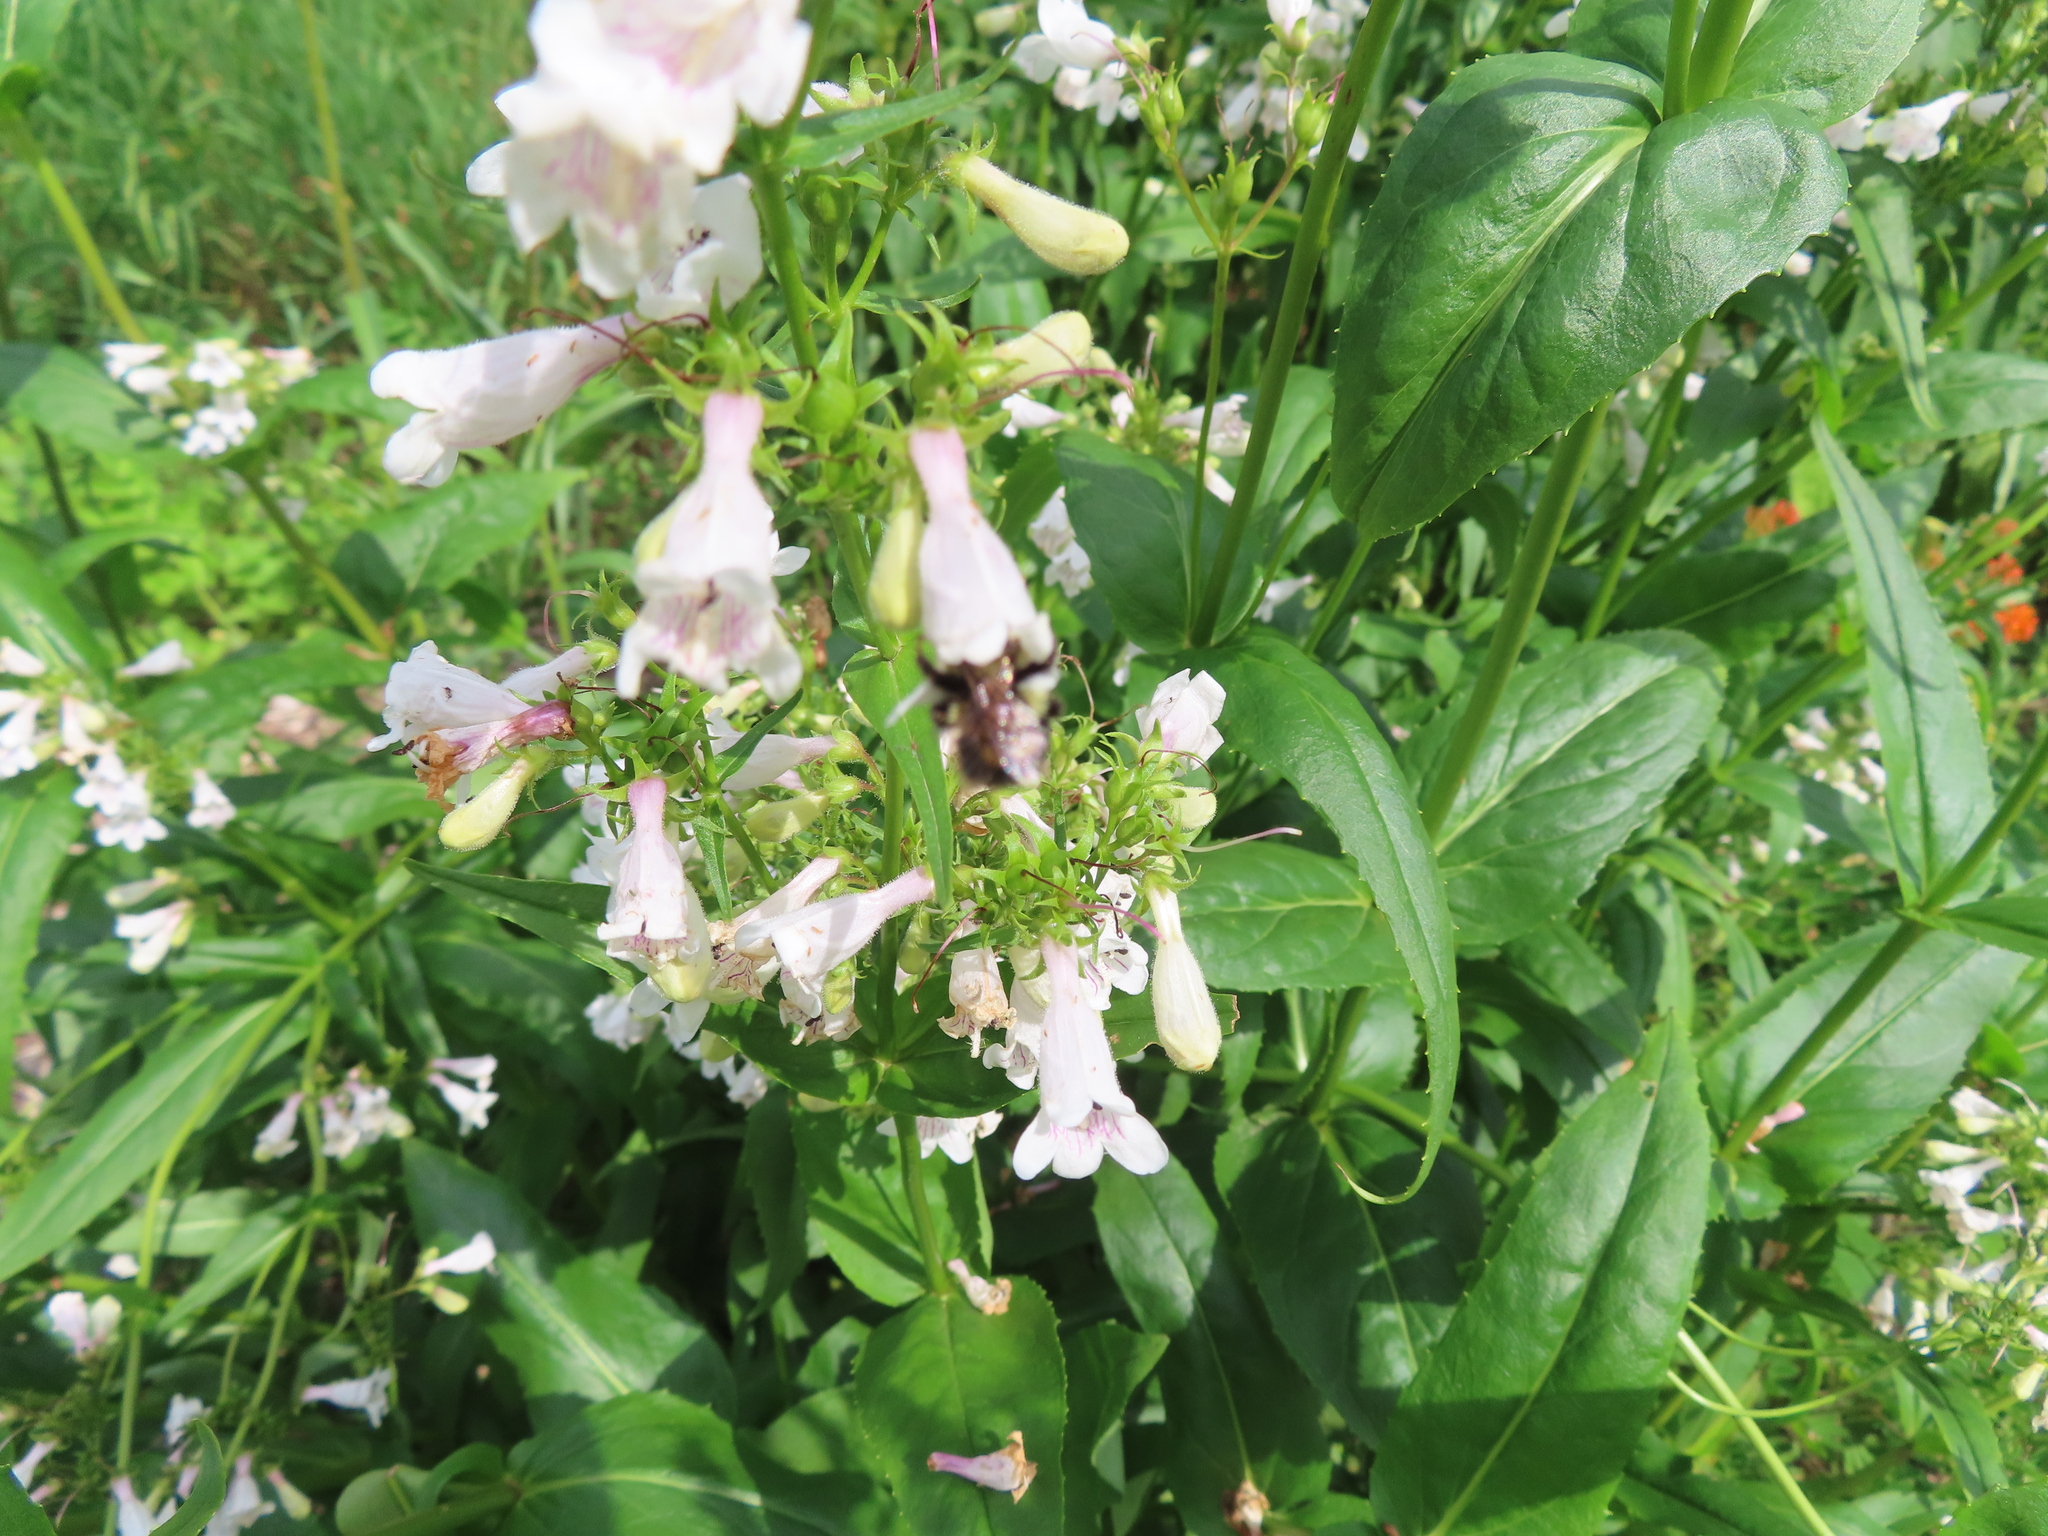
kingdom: Animalia
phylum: Arthropoda
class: Insecta
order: Hymenoptera
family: Apidae
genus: Bombus
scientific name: Bombus vagans
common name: Half-black bumble bee
